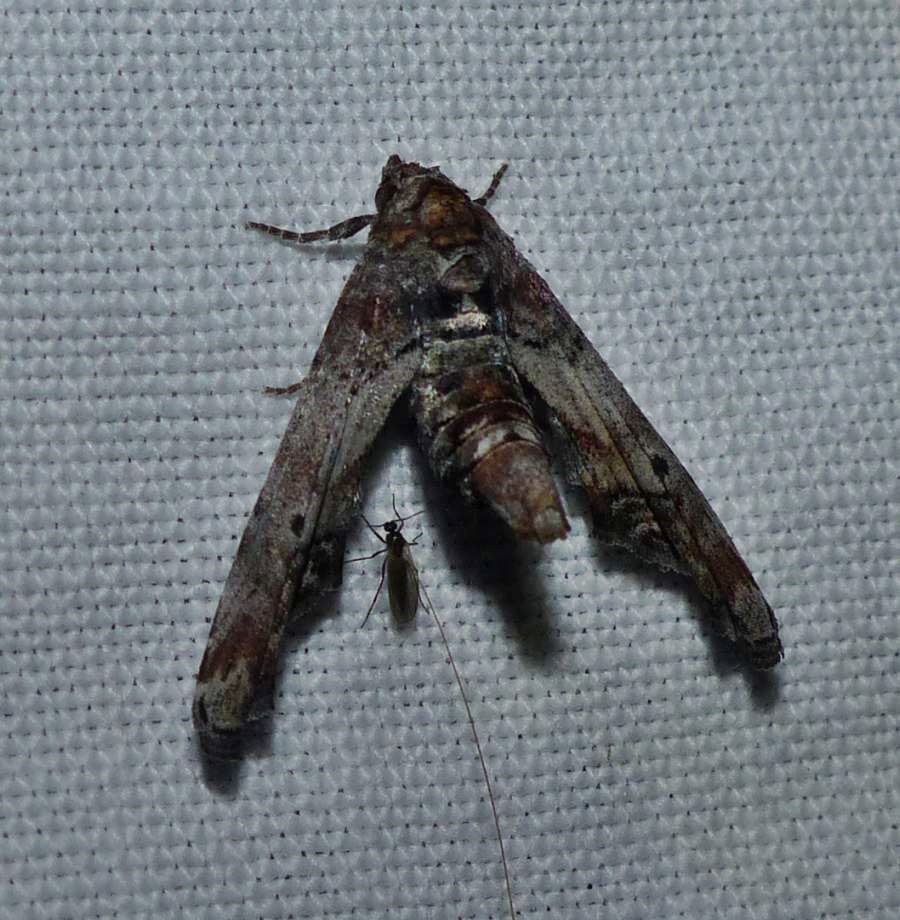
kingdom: Animalia
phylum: Arthropoda
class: Insecta
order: Lepidoptera
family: Euteliidae
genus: Marathyssa
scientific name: Marathyssa inficita
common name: Dark marathyssa moth
